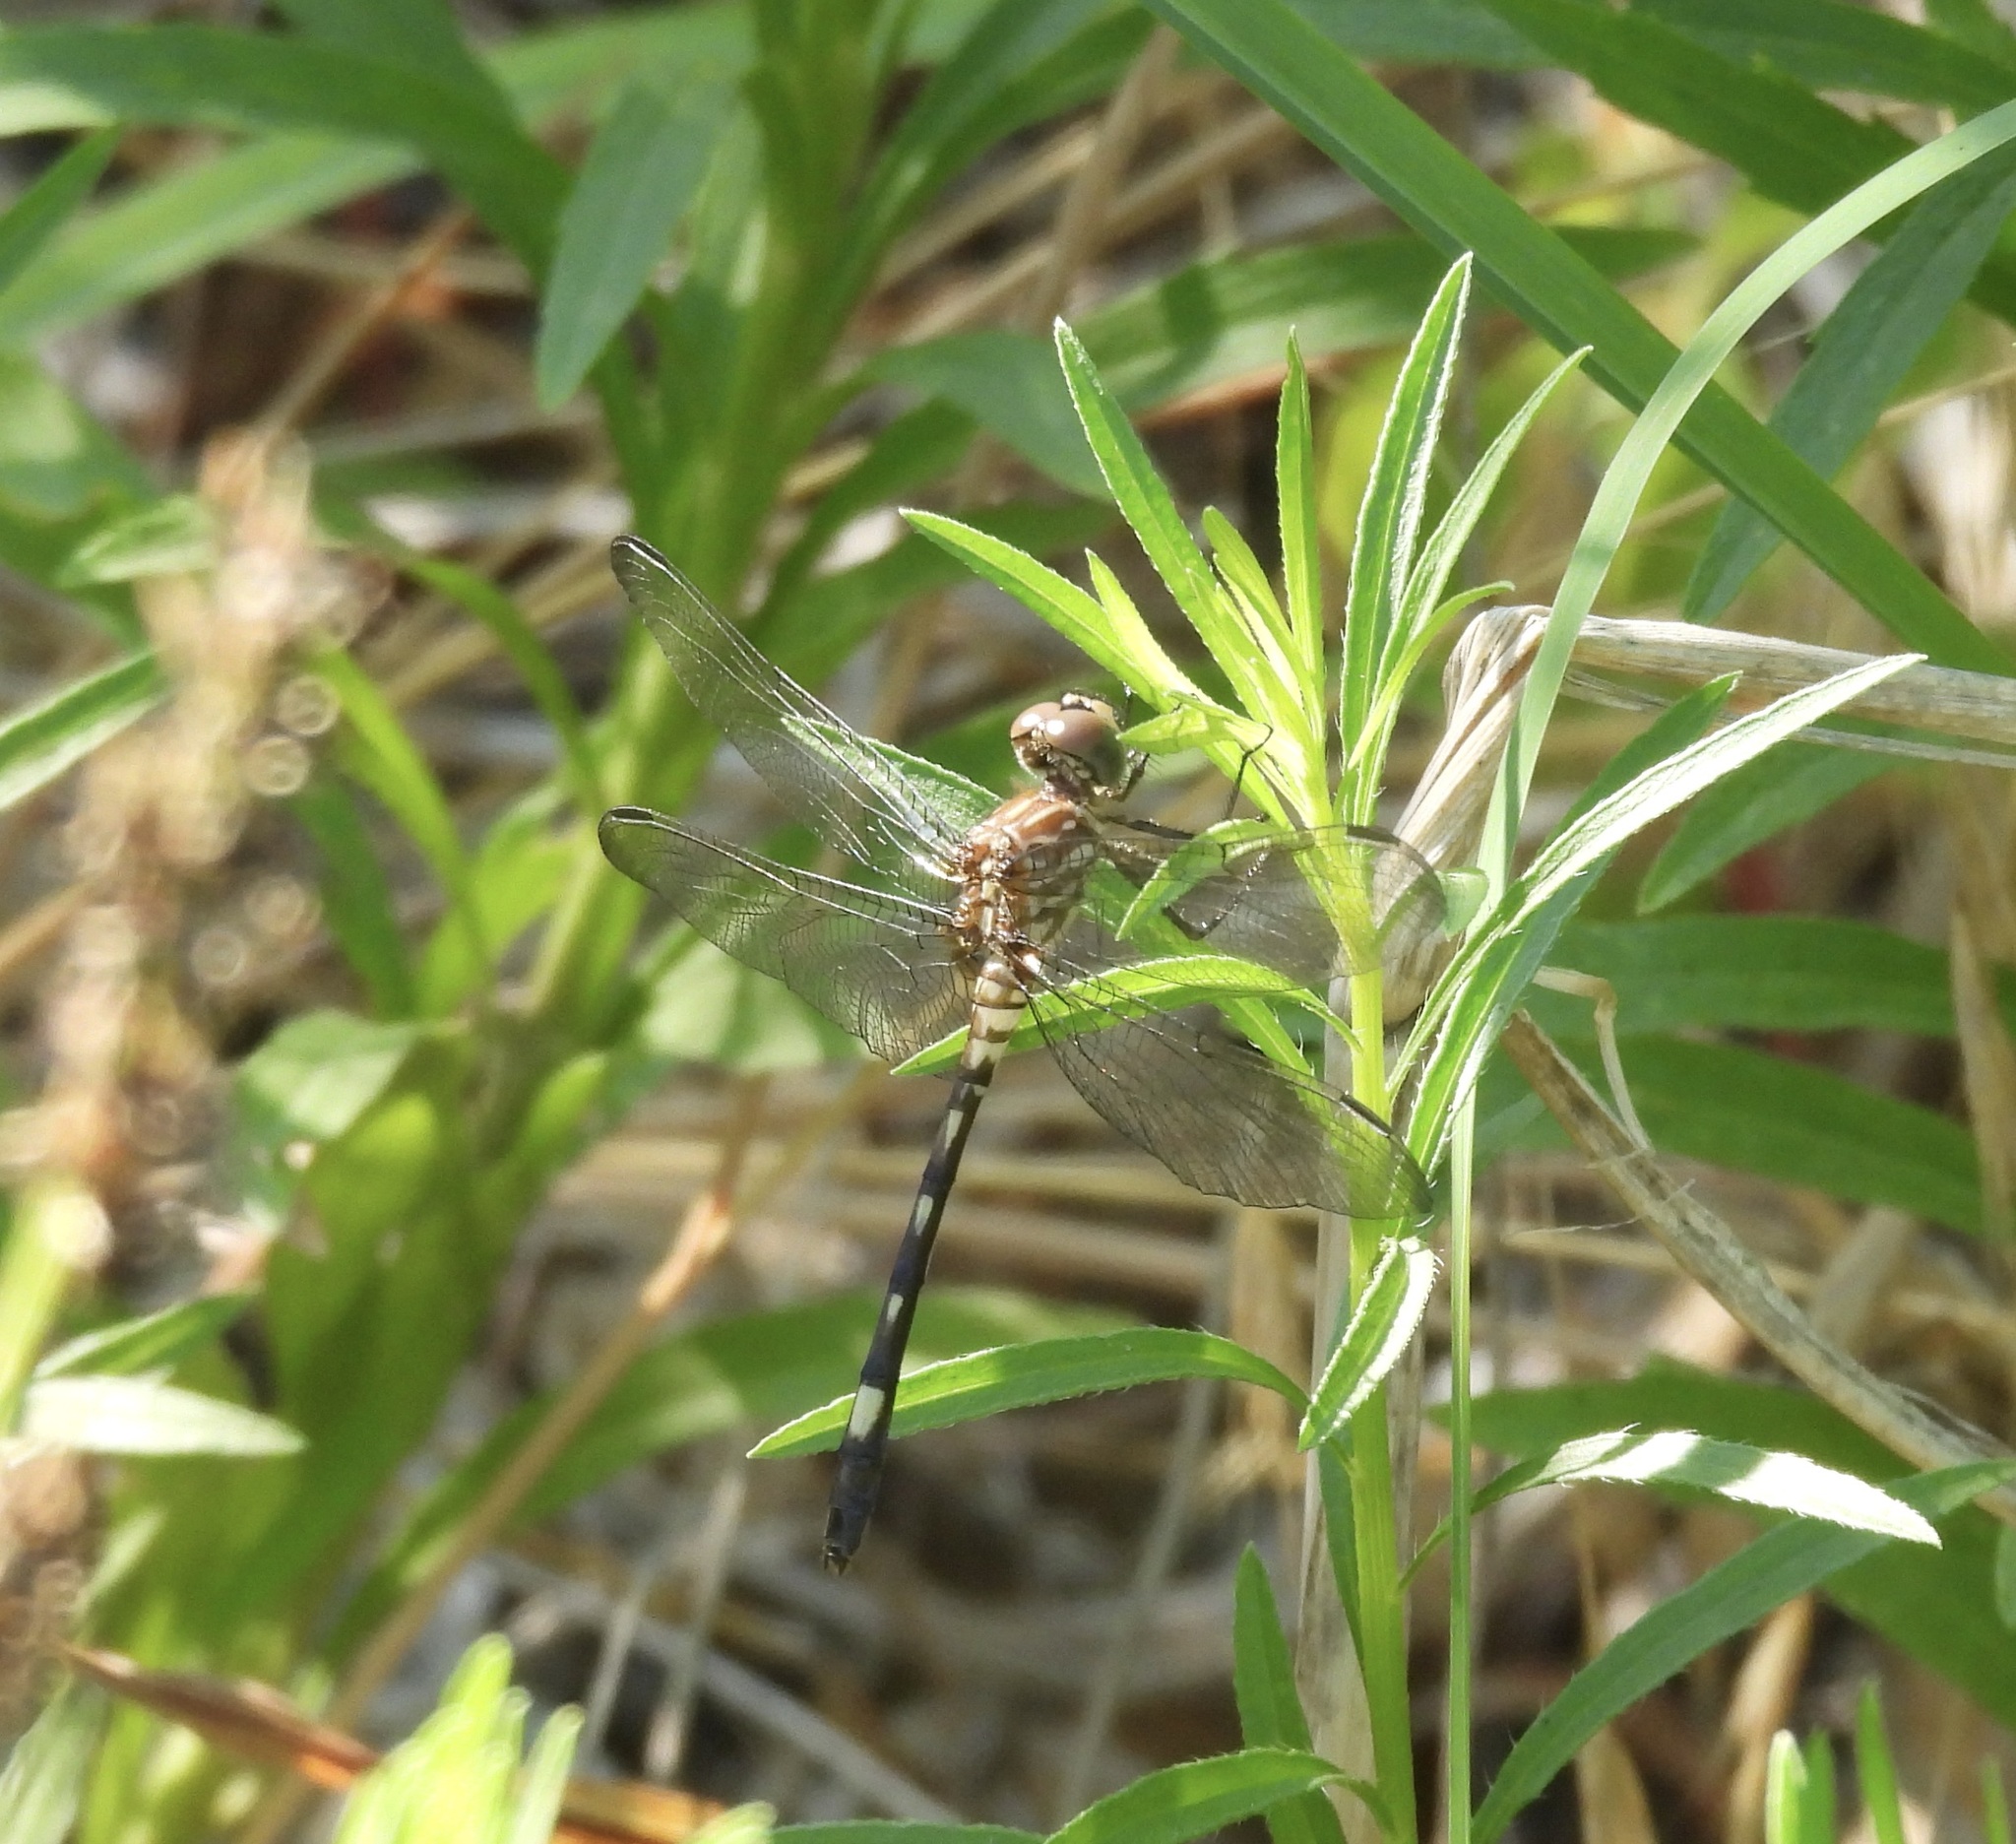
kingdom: Animalia
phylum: Arthropoda
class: Insecta
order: Odonata
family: Libellulidae
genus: Dythemis
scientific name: Dythemis velox
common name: Swift setwing
